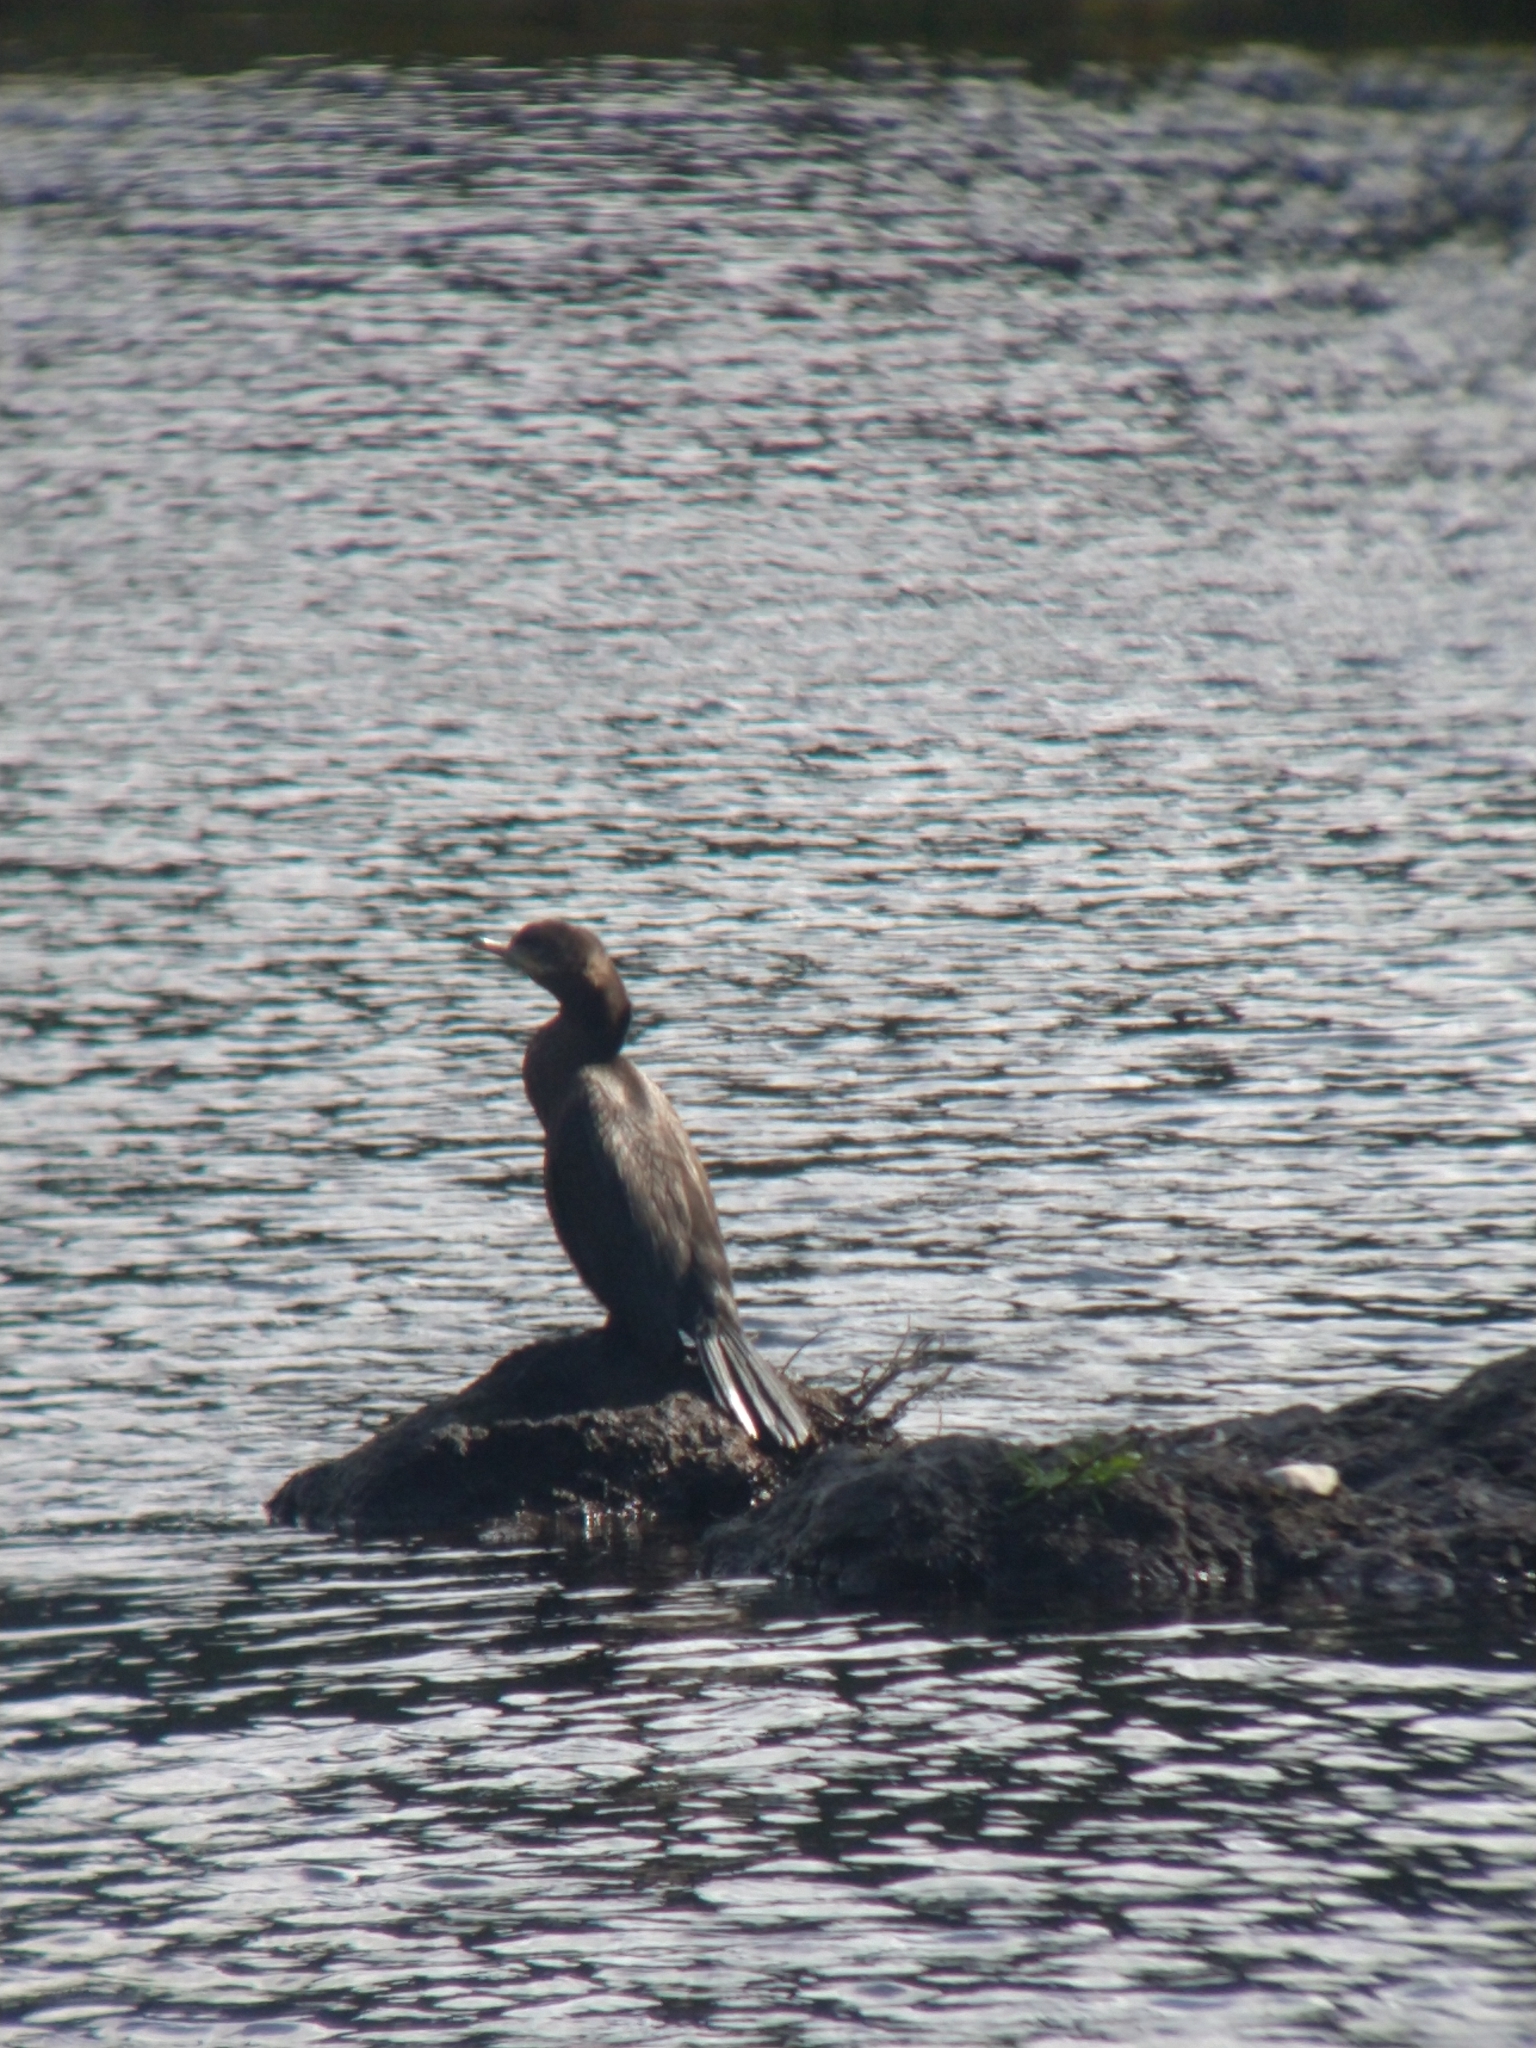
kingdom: Animalia
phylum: Chordata
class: Aves
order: Suliformes
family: Phalacrocoracidae
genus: Phalacrocorax
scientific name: Phalacrocorax brasilianus
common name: Neotropic cormorant
